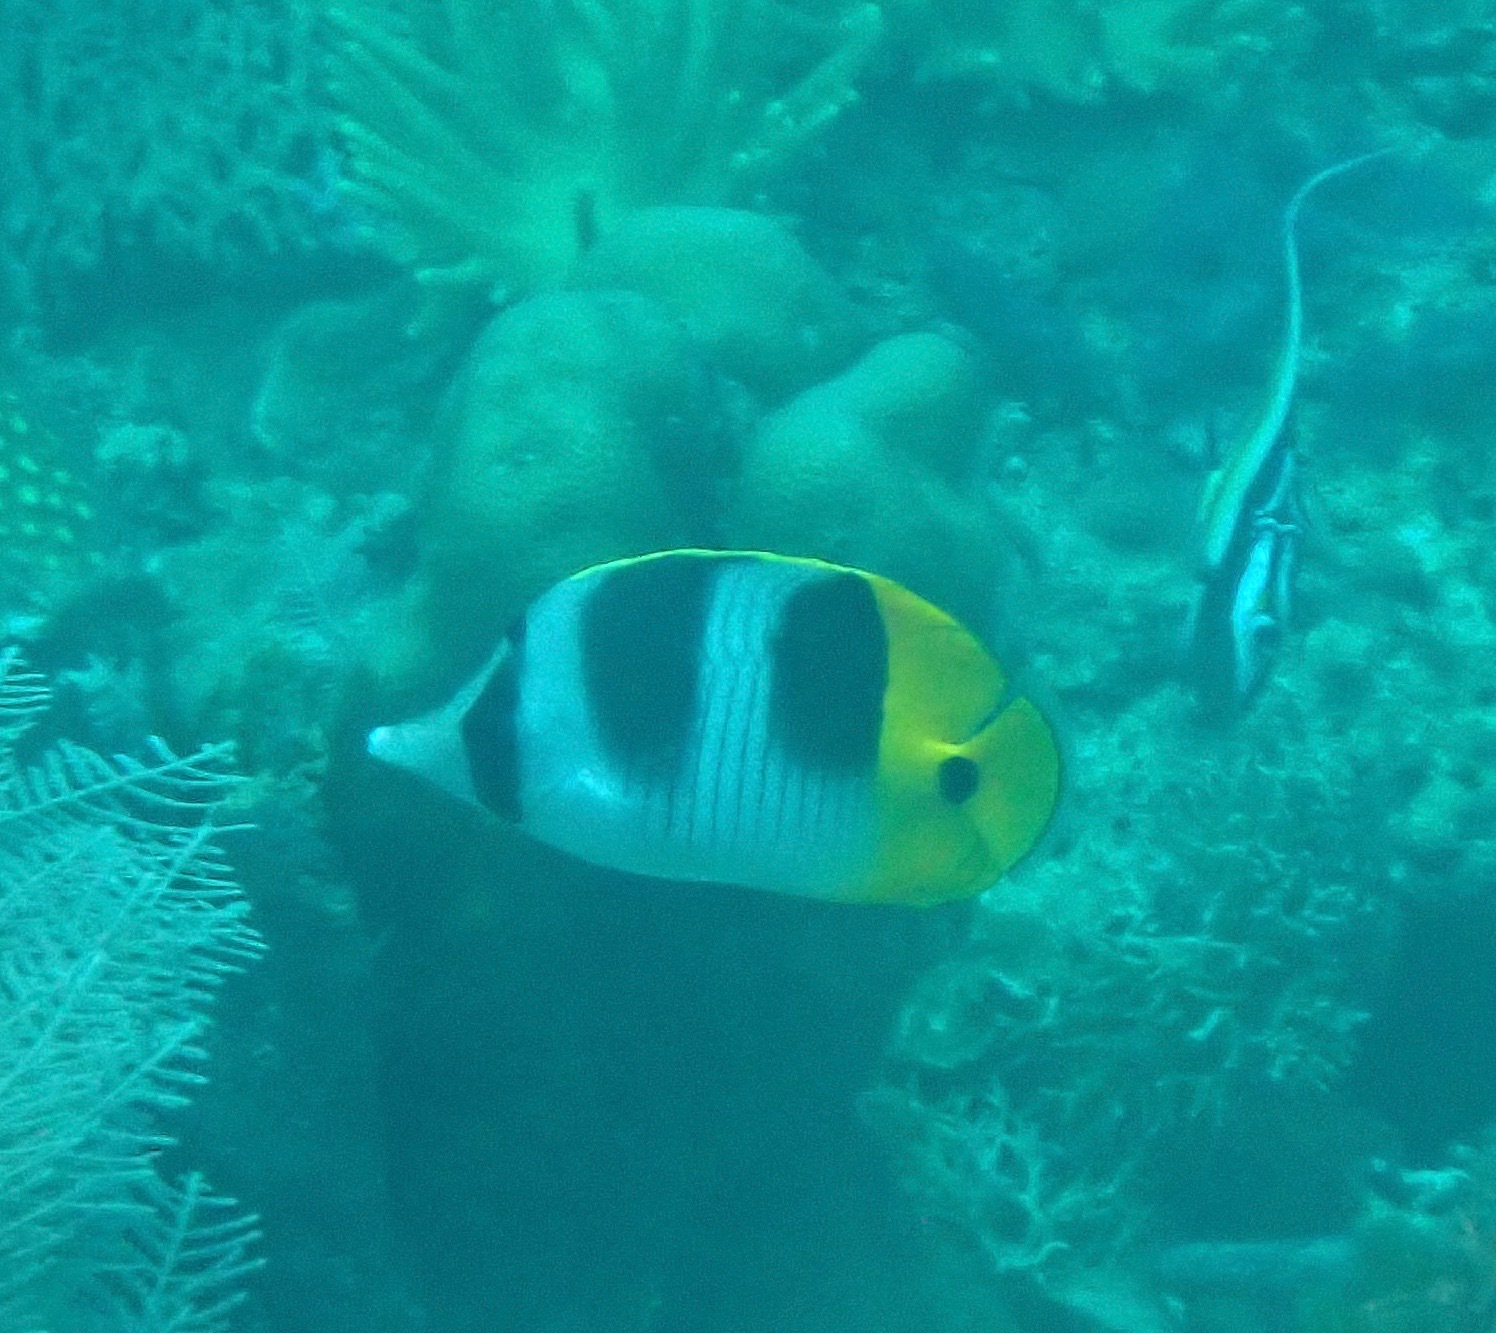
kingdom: Animalia
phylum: Chordata
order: Perciformes
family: Chaetodontidae
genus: Chaetodon
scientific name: Chaetodon ulietensis
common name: Pacific double-saddle butterflyfish
